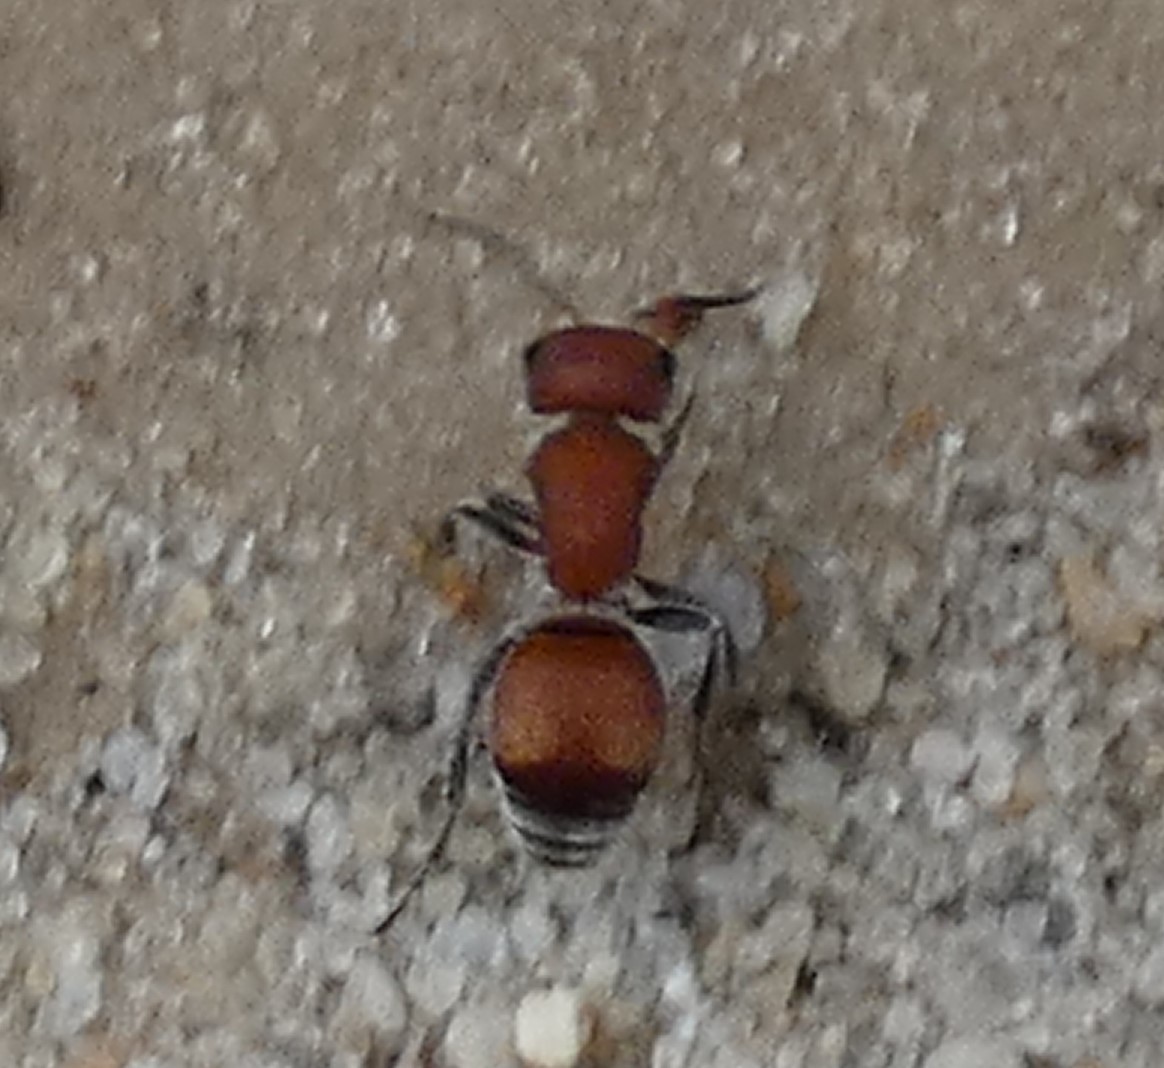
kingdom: Animalia
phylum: Arthropoda
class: Insecta
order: Hymenoptera
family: Mutillidae
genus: Pseudomethoca
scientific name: Pseudomethoca
